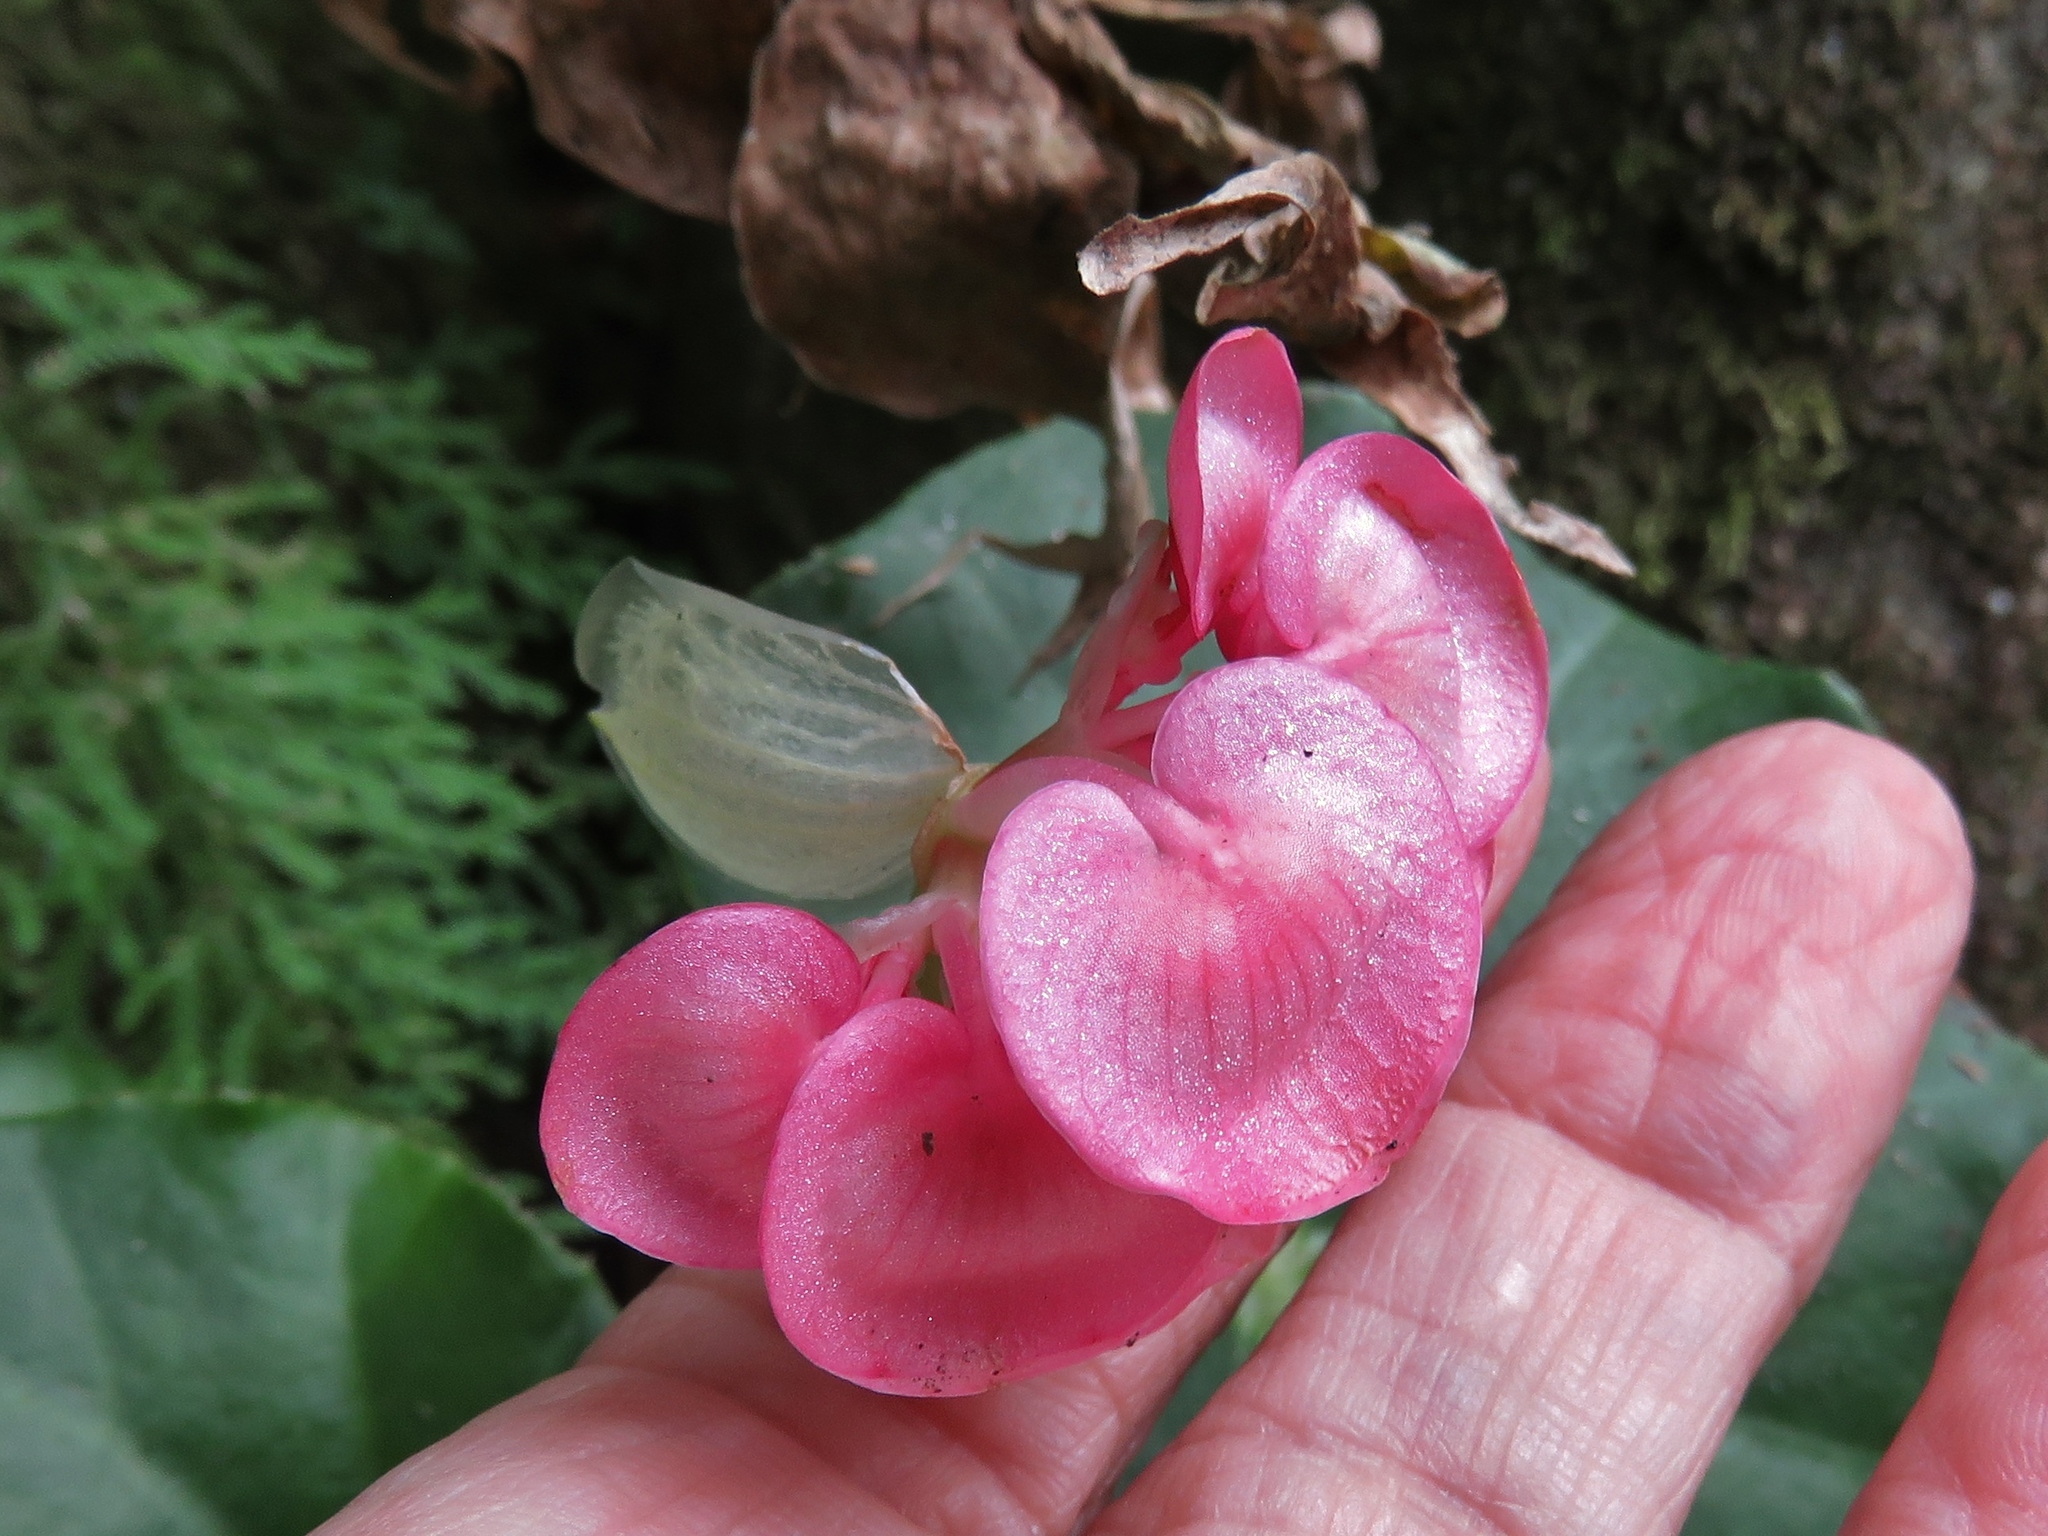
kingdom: Plantae
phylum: Tracheophyta
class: Magnoliopsida
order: Cucurbitales
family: Begoniaceae
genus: Begonia
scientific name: Begonia bracteosa
